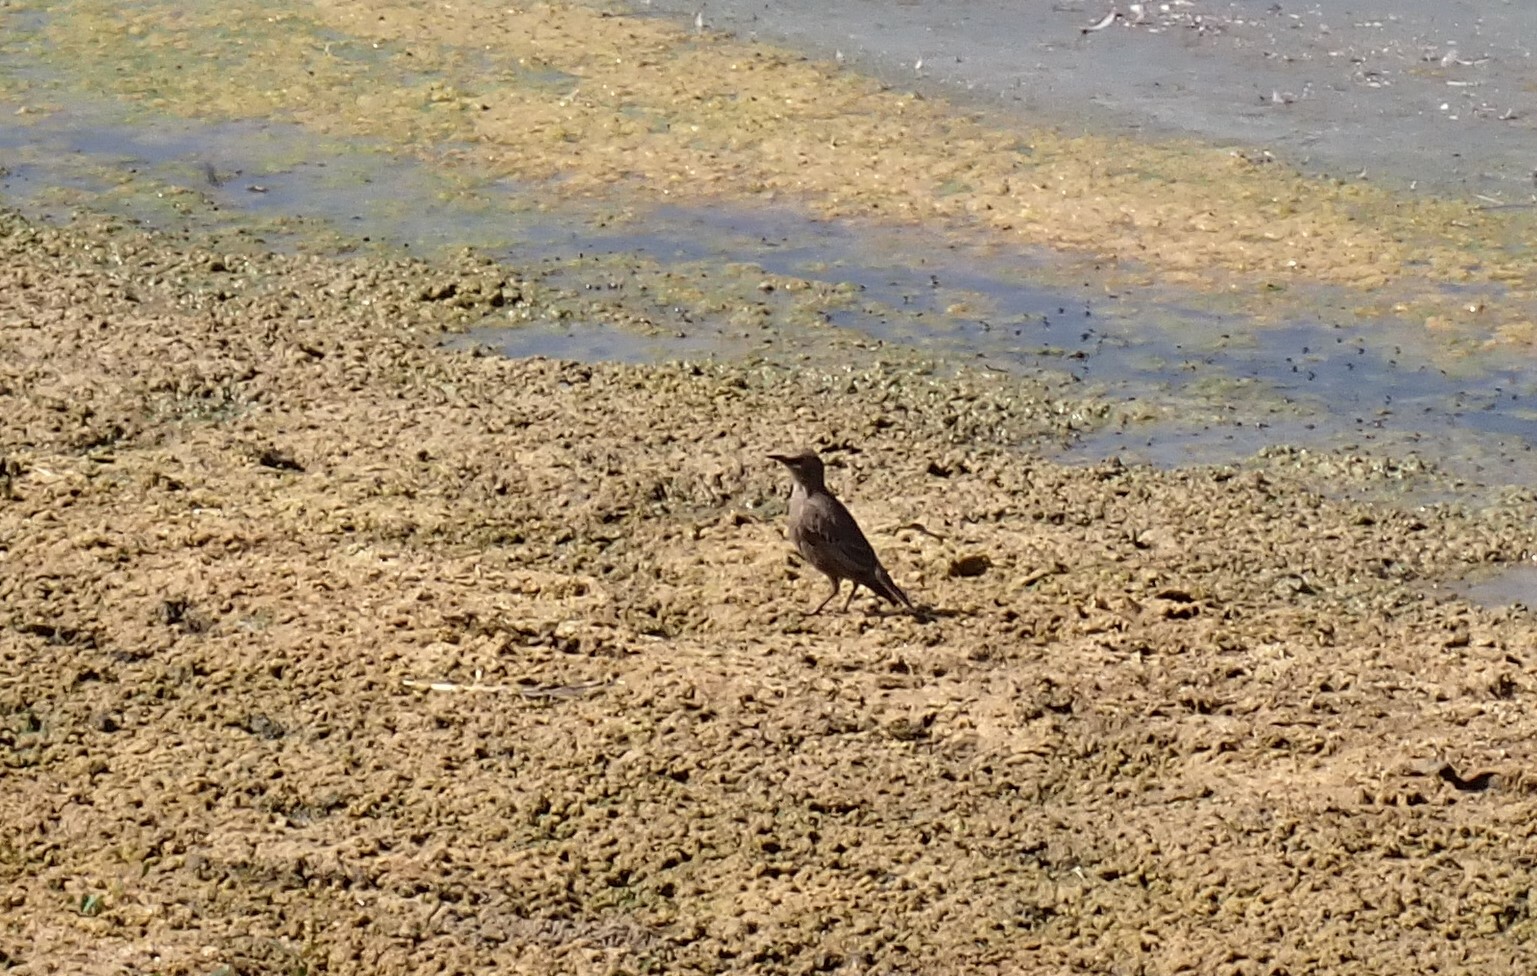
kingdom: Animalia
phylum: Chordata
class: Aves
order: Passeriformes
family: Sturnidae
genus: Sturnus
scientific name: Sturnus vulgaris
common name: Common starling
